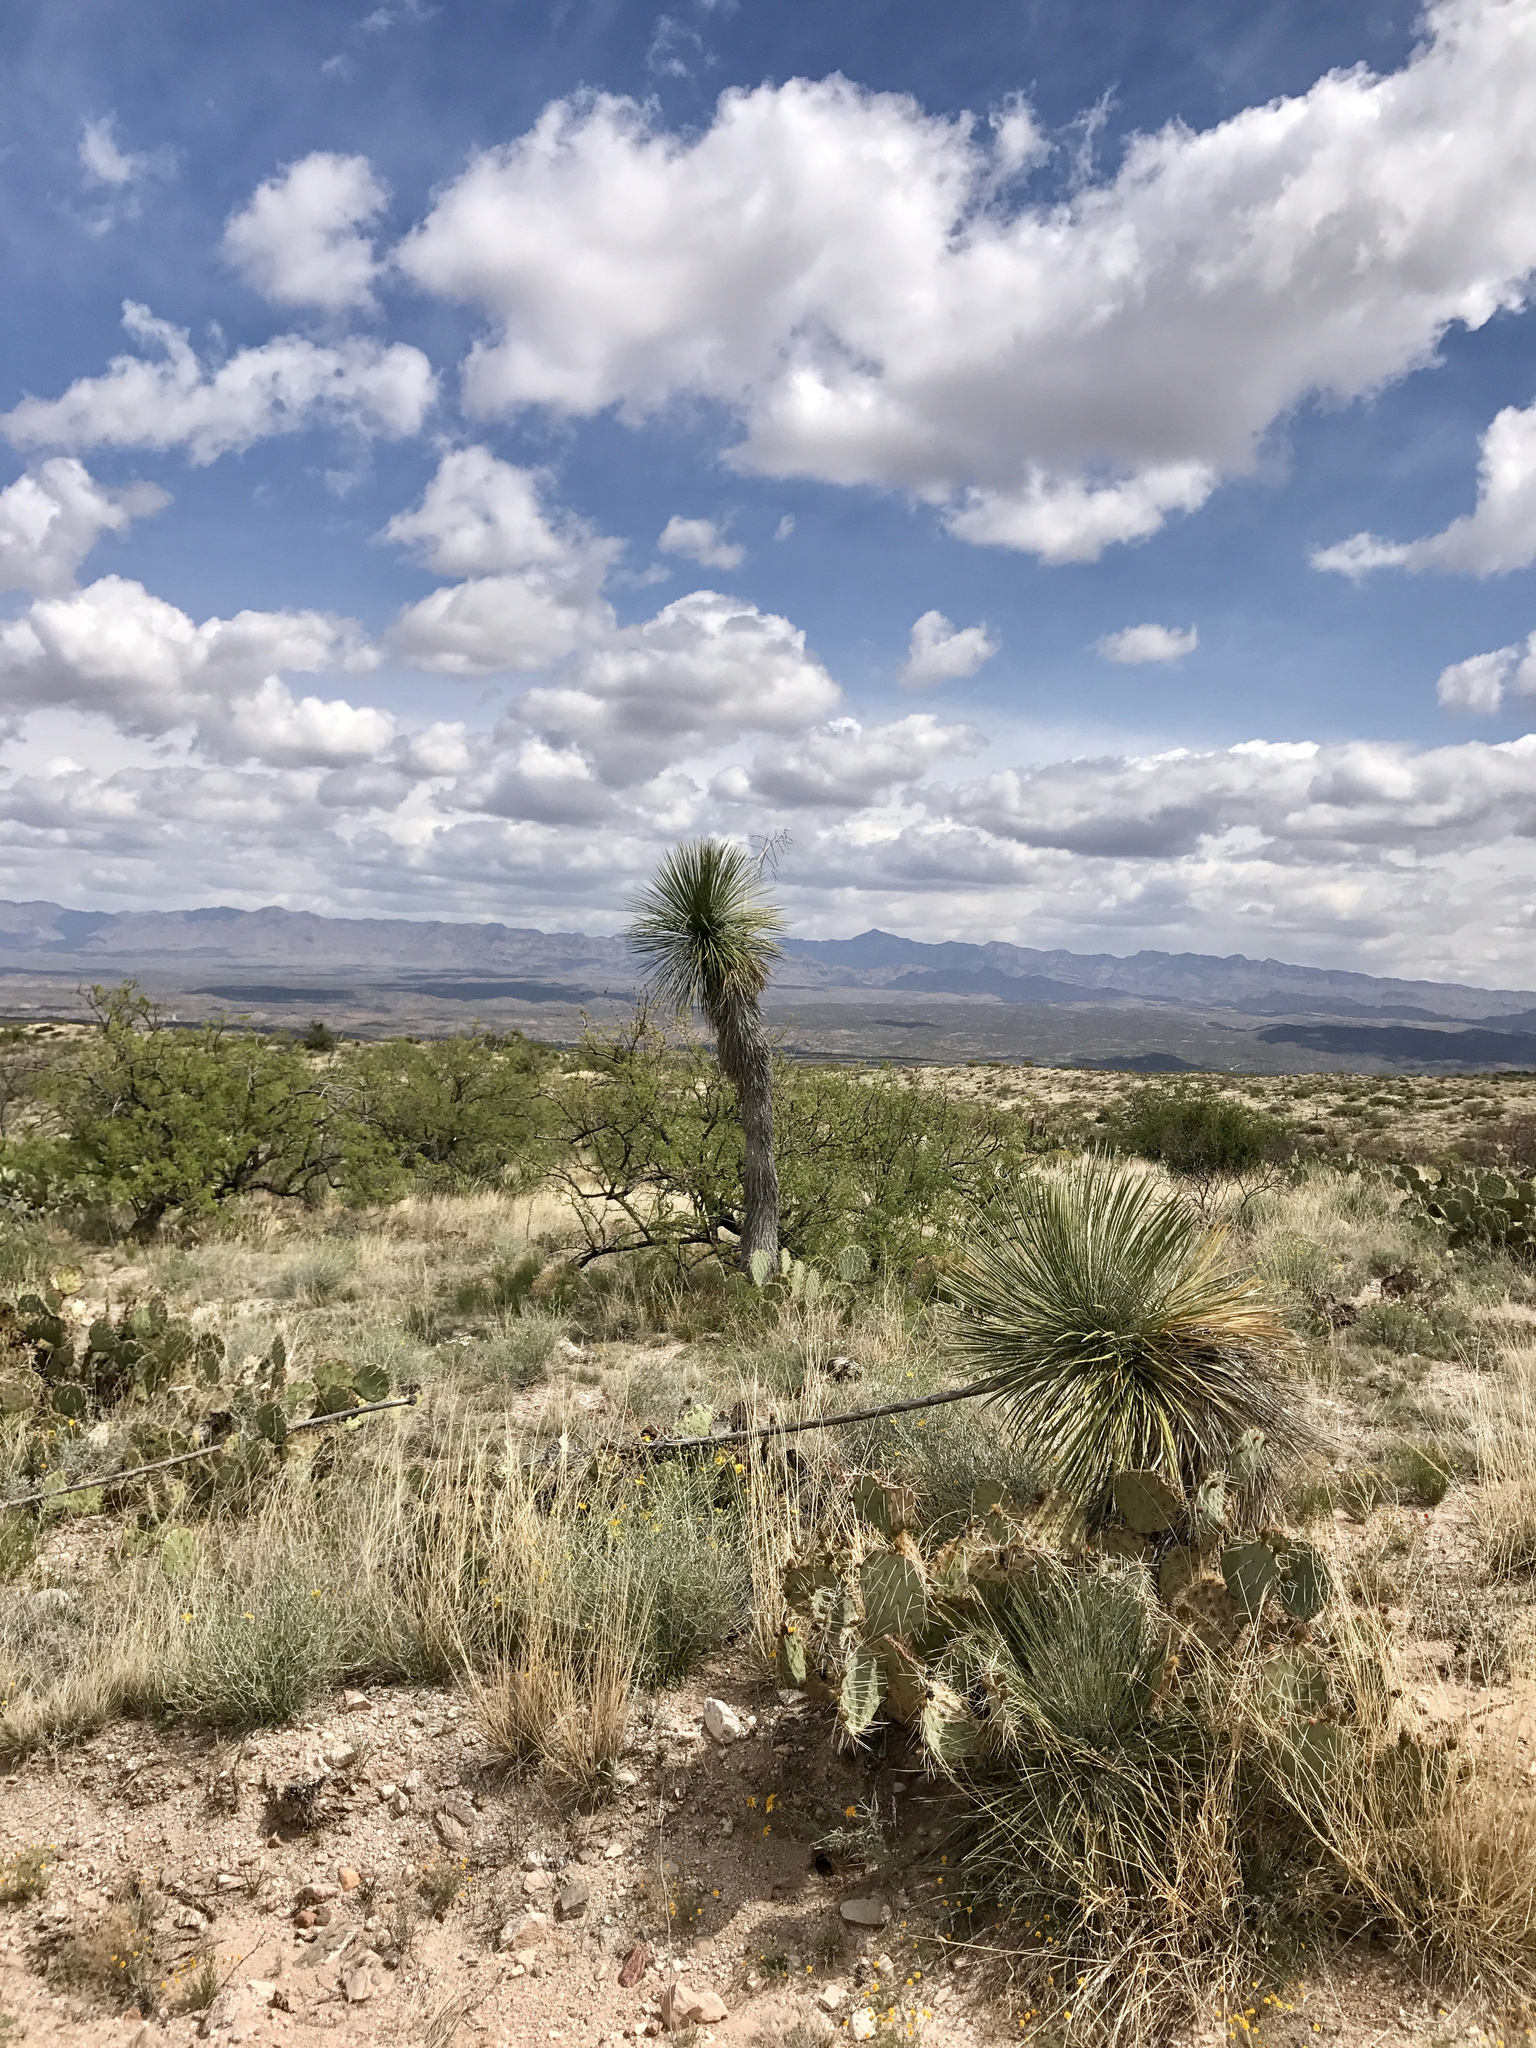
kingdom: Plantae
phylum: Tracheophyta
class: Liliopsida
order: Asparagales
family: Asparagaceae
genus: Yucca
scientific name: Yucca elata
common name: Palmella
